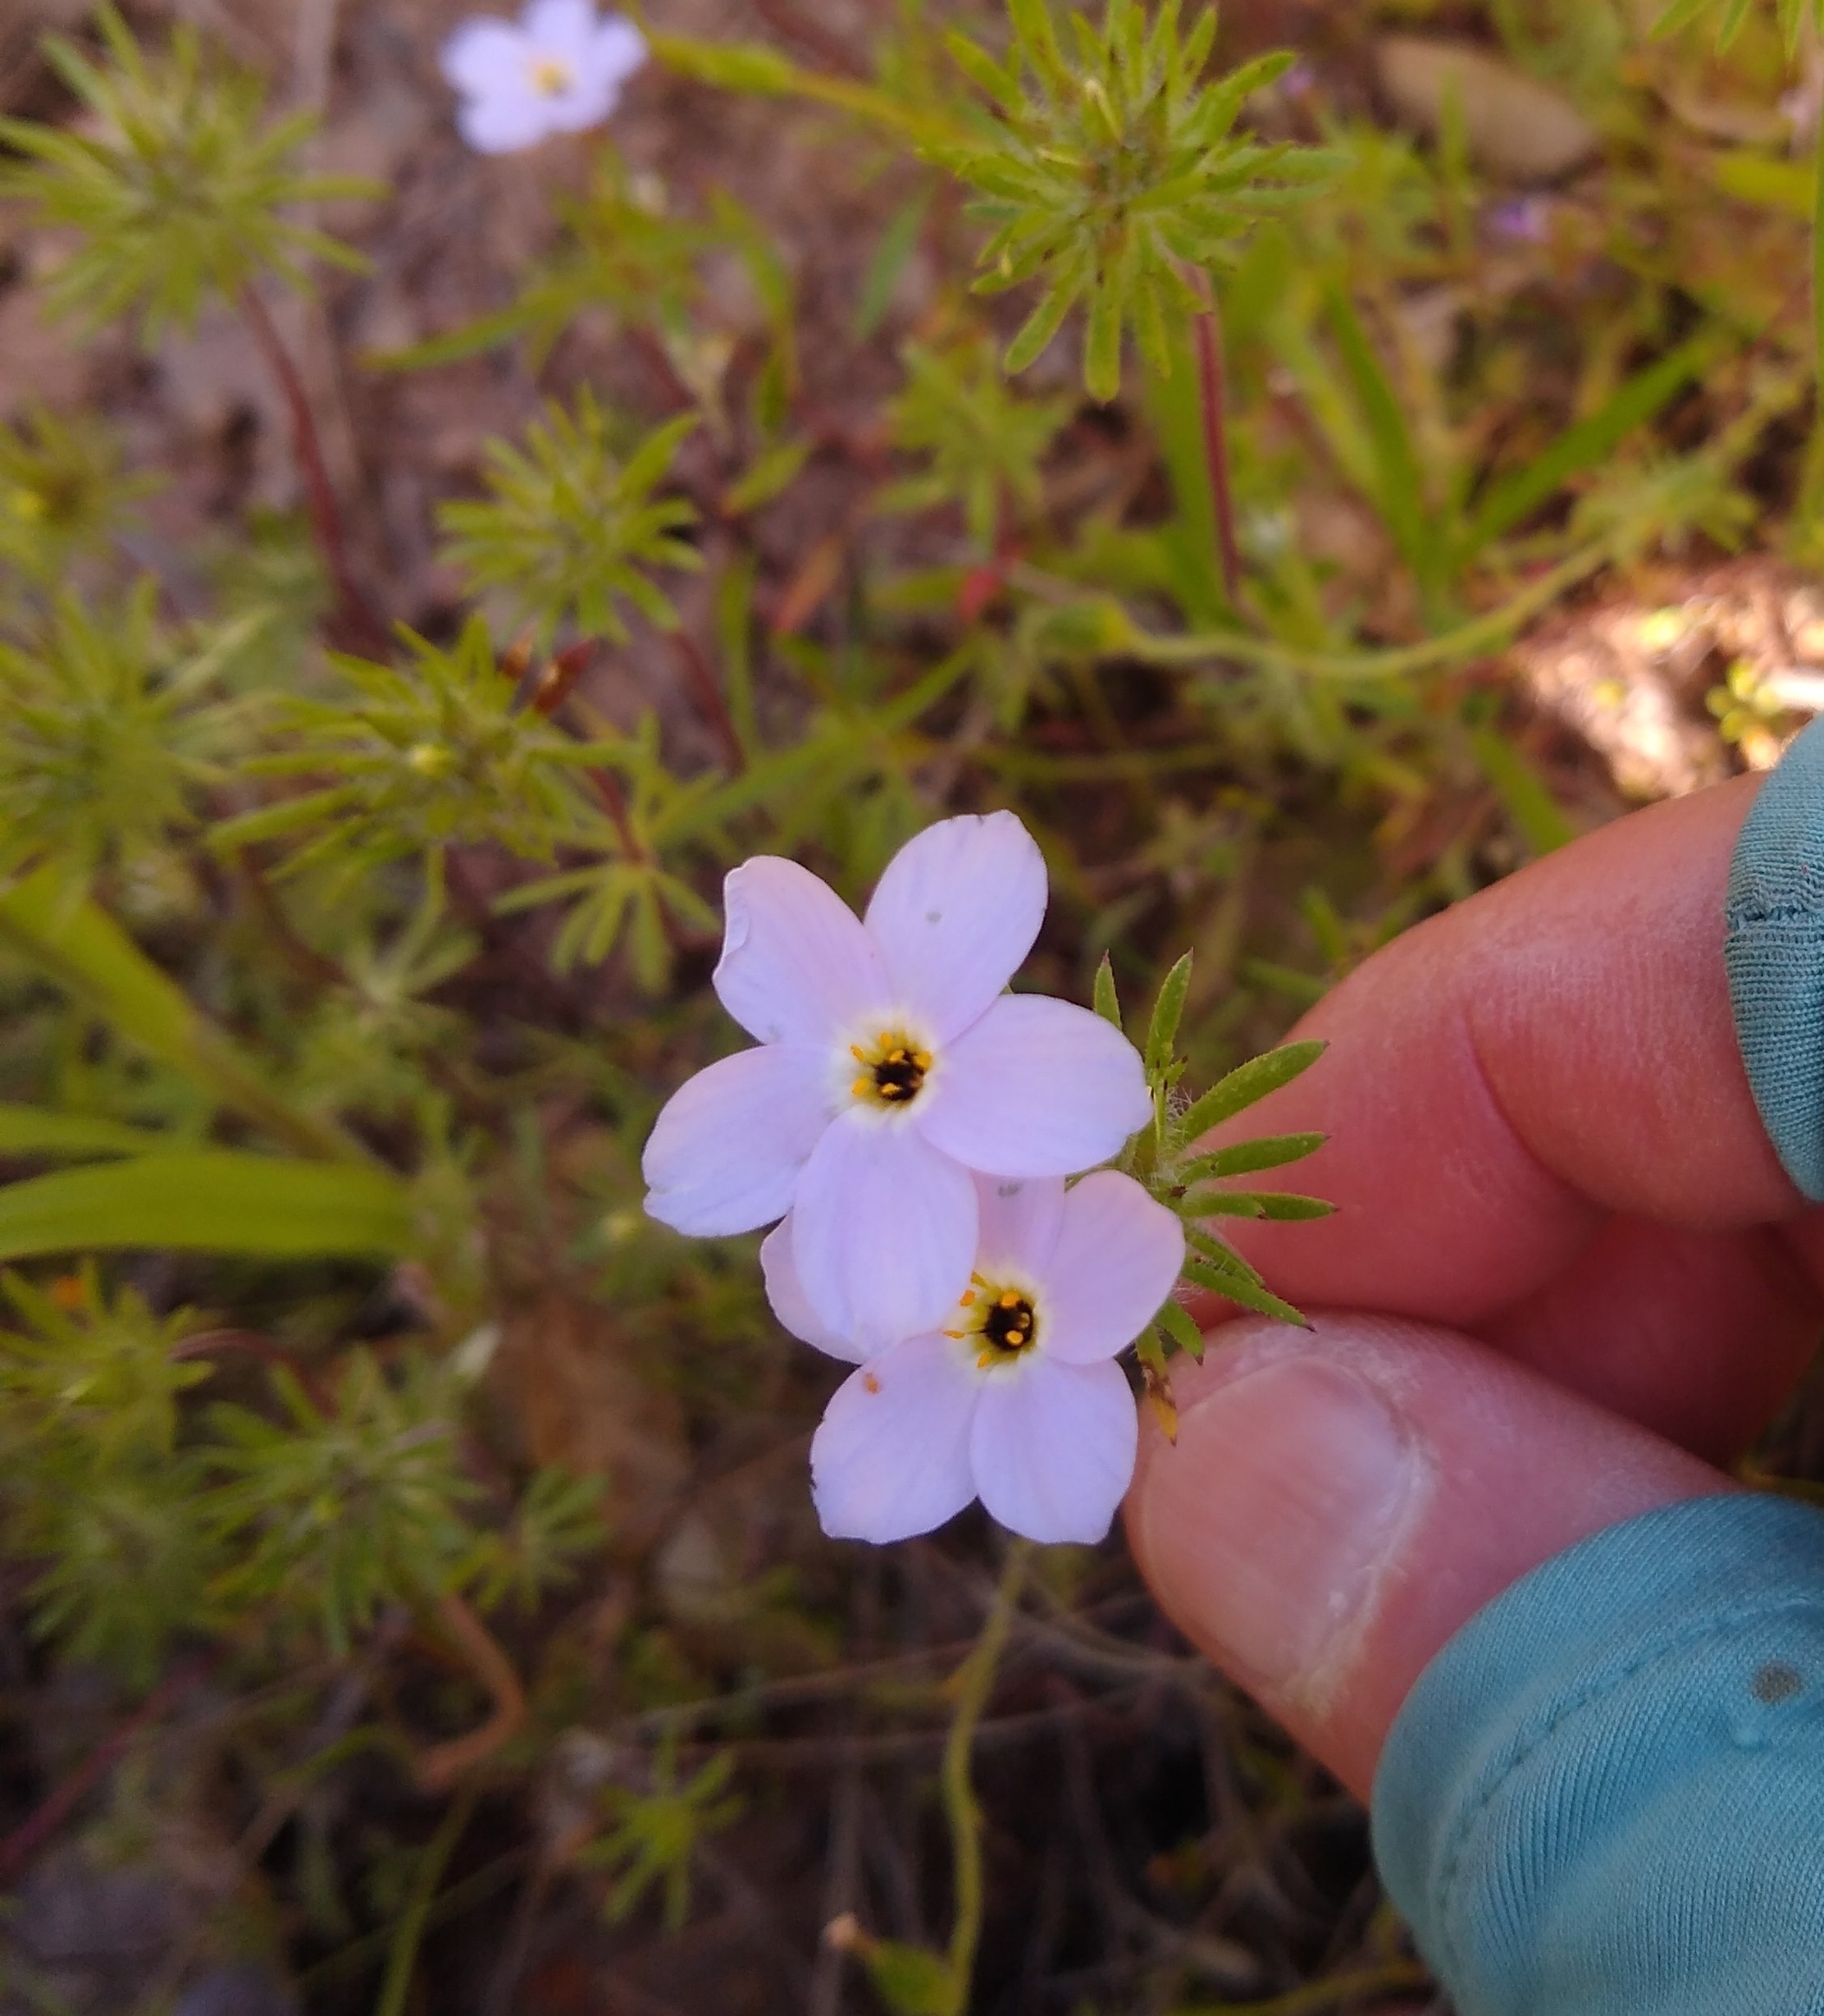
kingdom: Plantae
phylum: Tracheophyta
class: Magnoliopsida
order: Ericales
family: Polemoniaceae
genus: Leptosiphon
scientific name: Leptosiphon androsaceus
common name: False babystars
